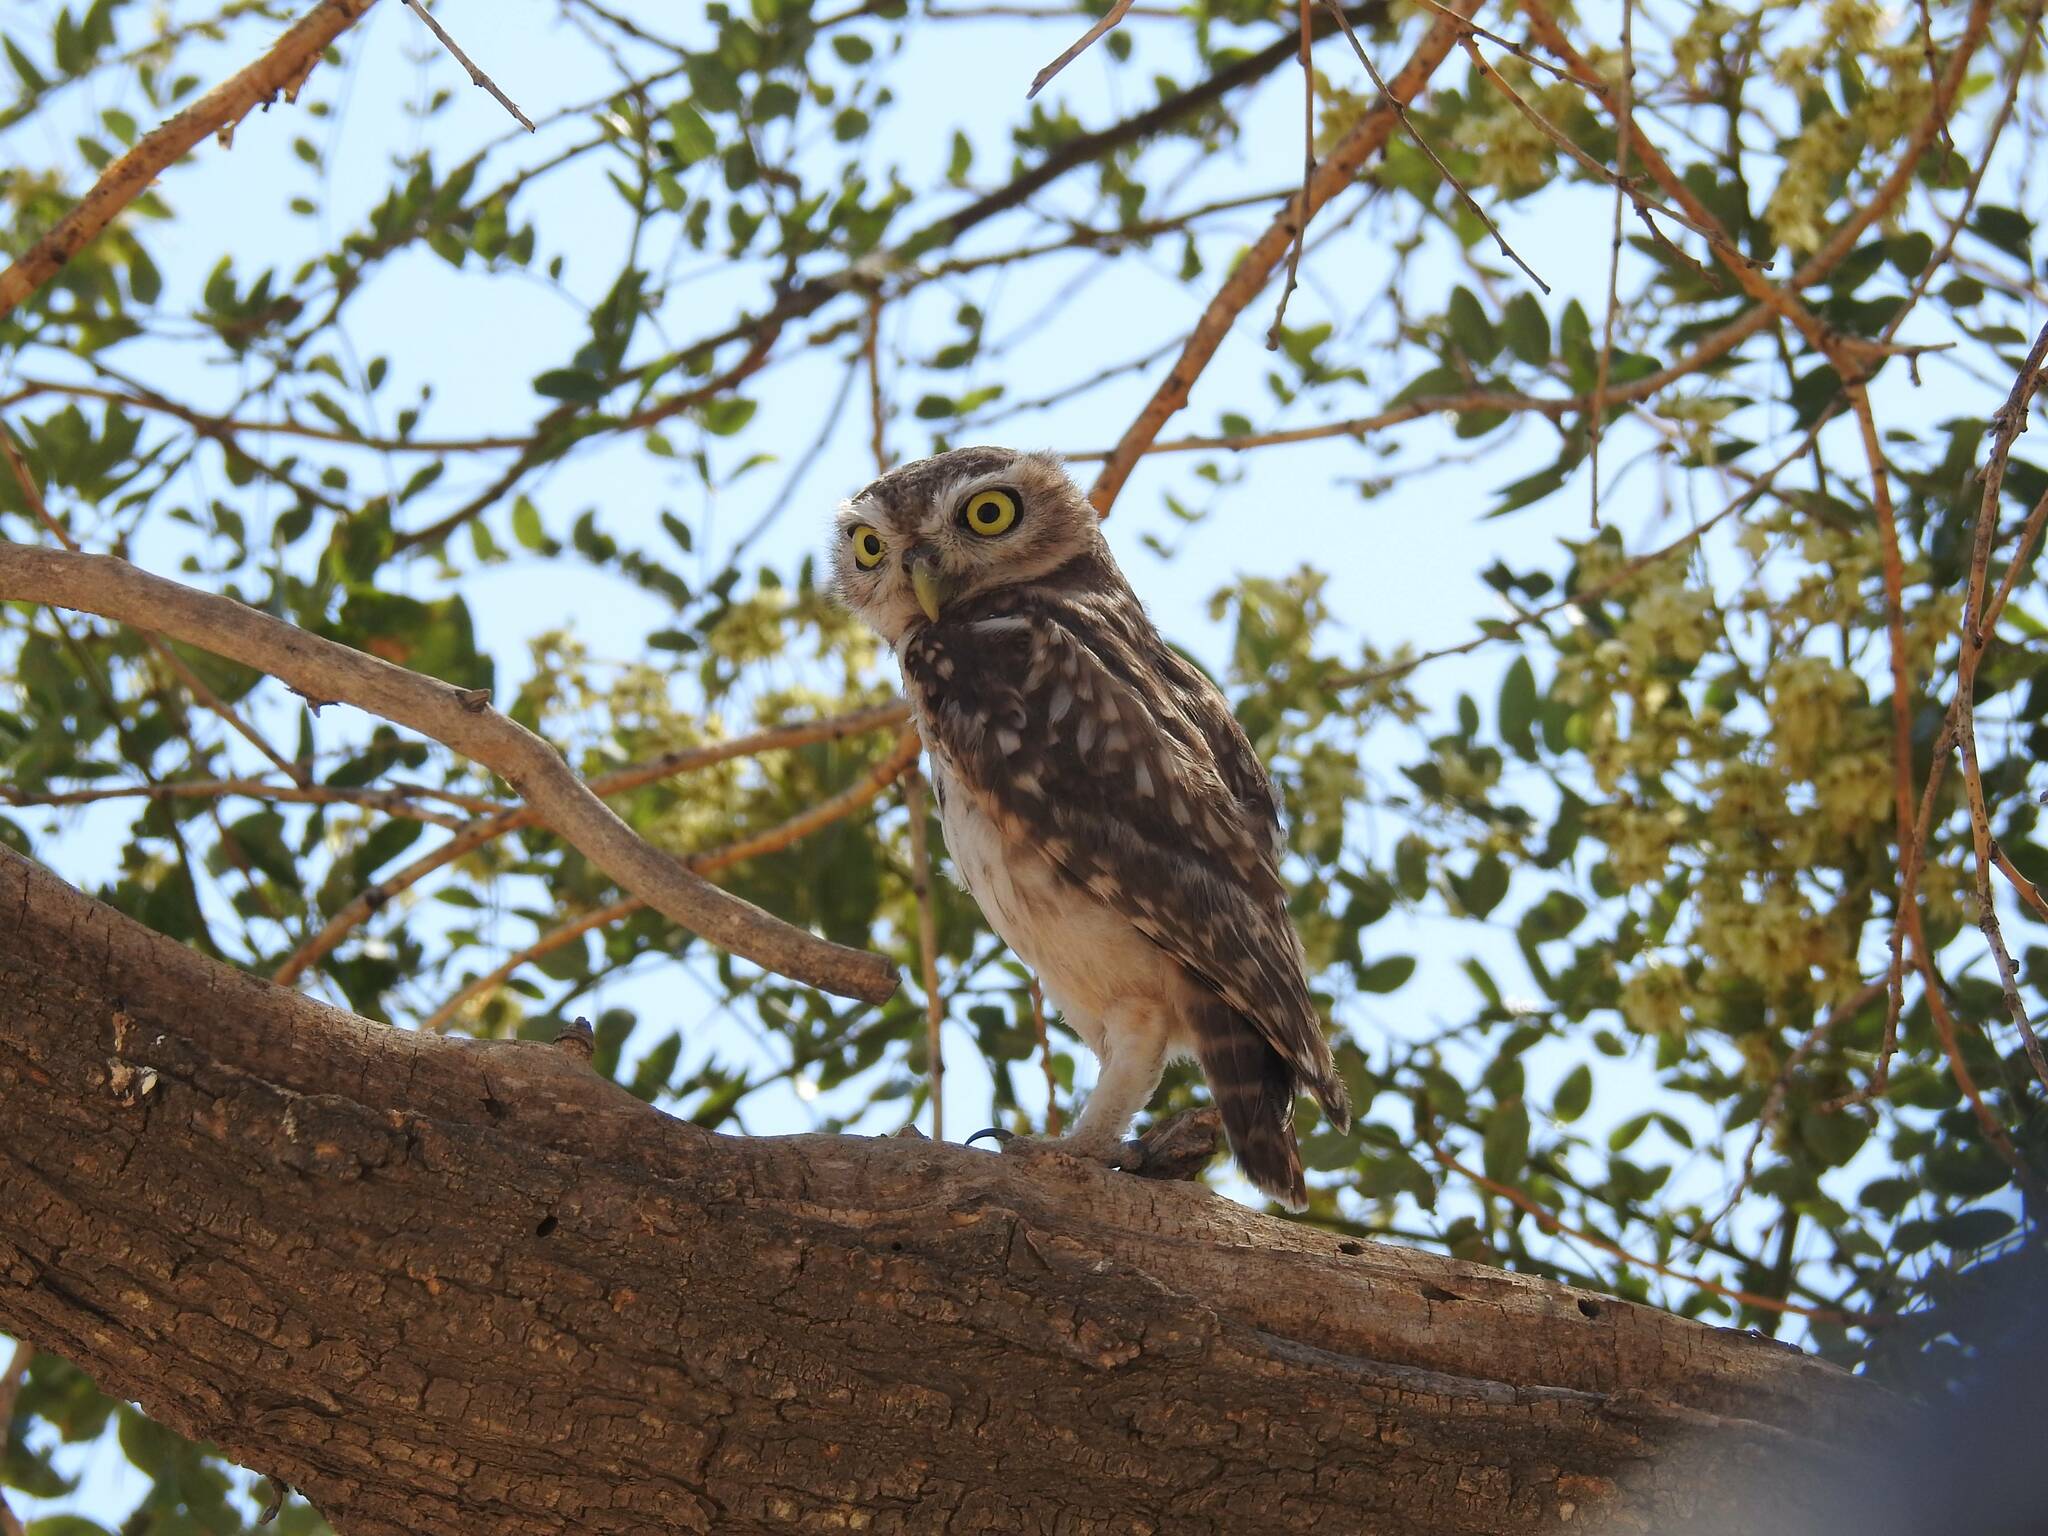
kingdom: Animalia
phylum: Chordata
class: Aves
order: Strigiformes
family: Strigidae
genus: Athene
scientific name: Athene noctua
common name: Little owl
